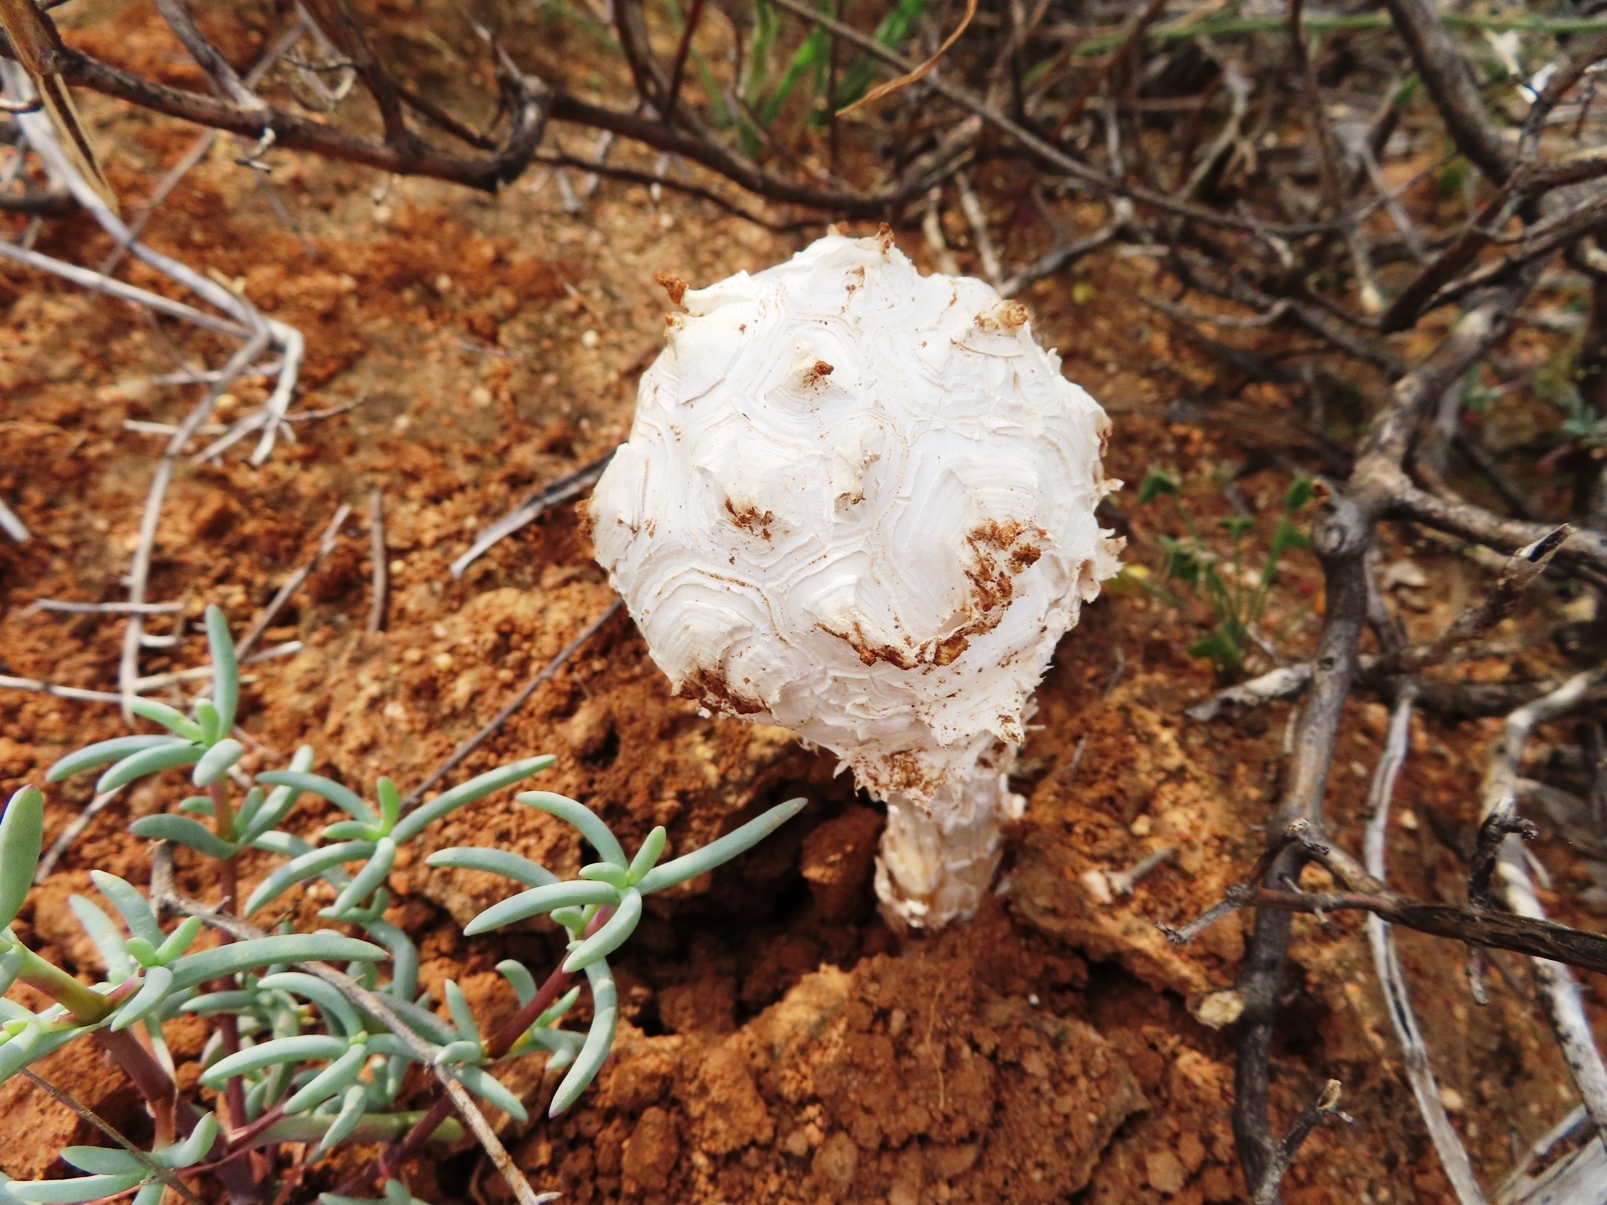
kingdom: Fungi
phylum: Basidiomycota
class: Agaricomycetes
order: Agaricales
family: Agaricaceae
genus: Phellorinia
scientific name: Phellorinia herculeana
